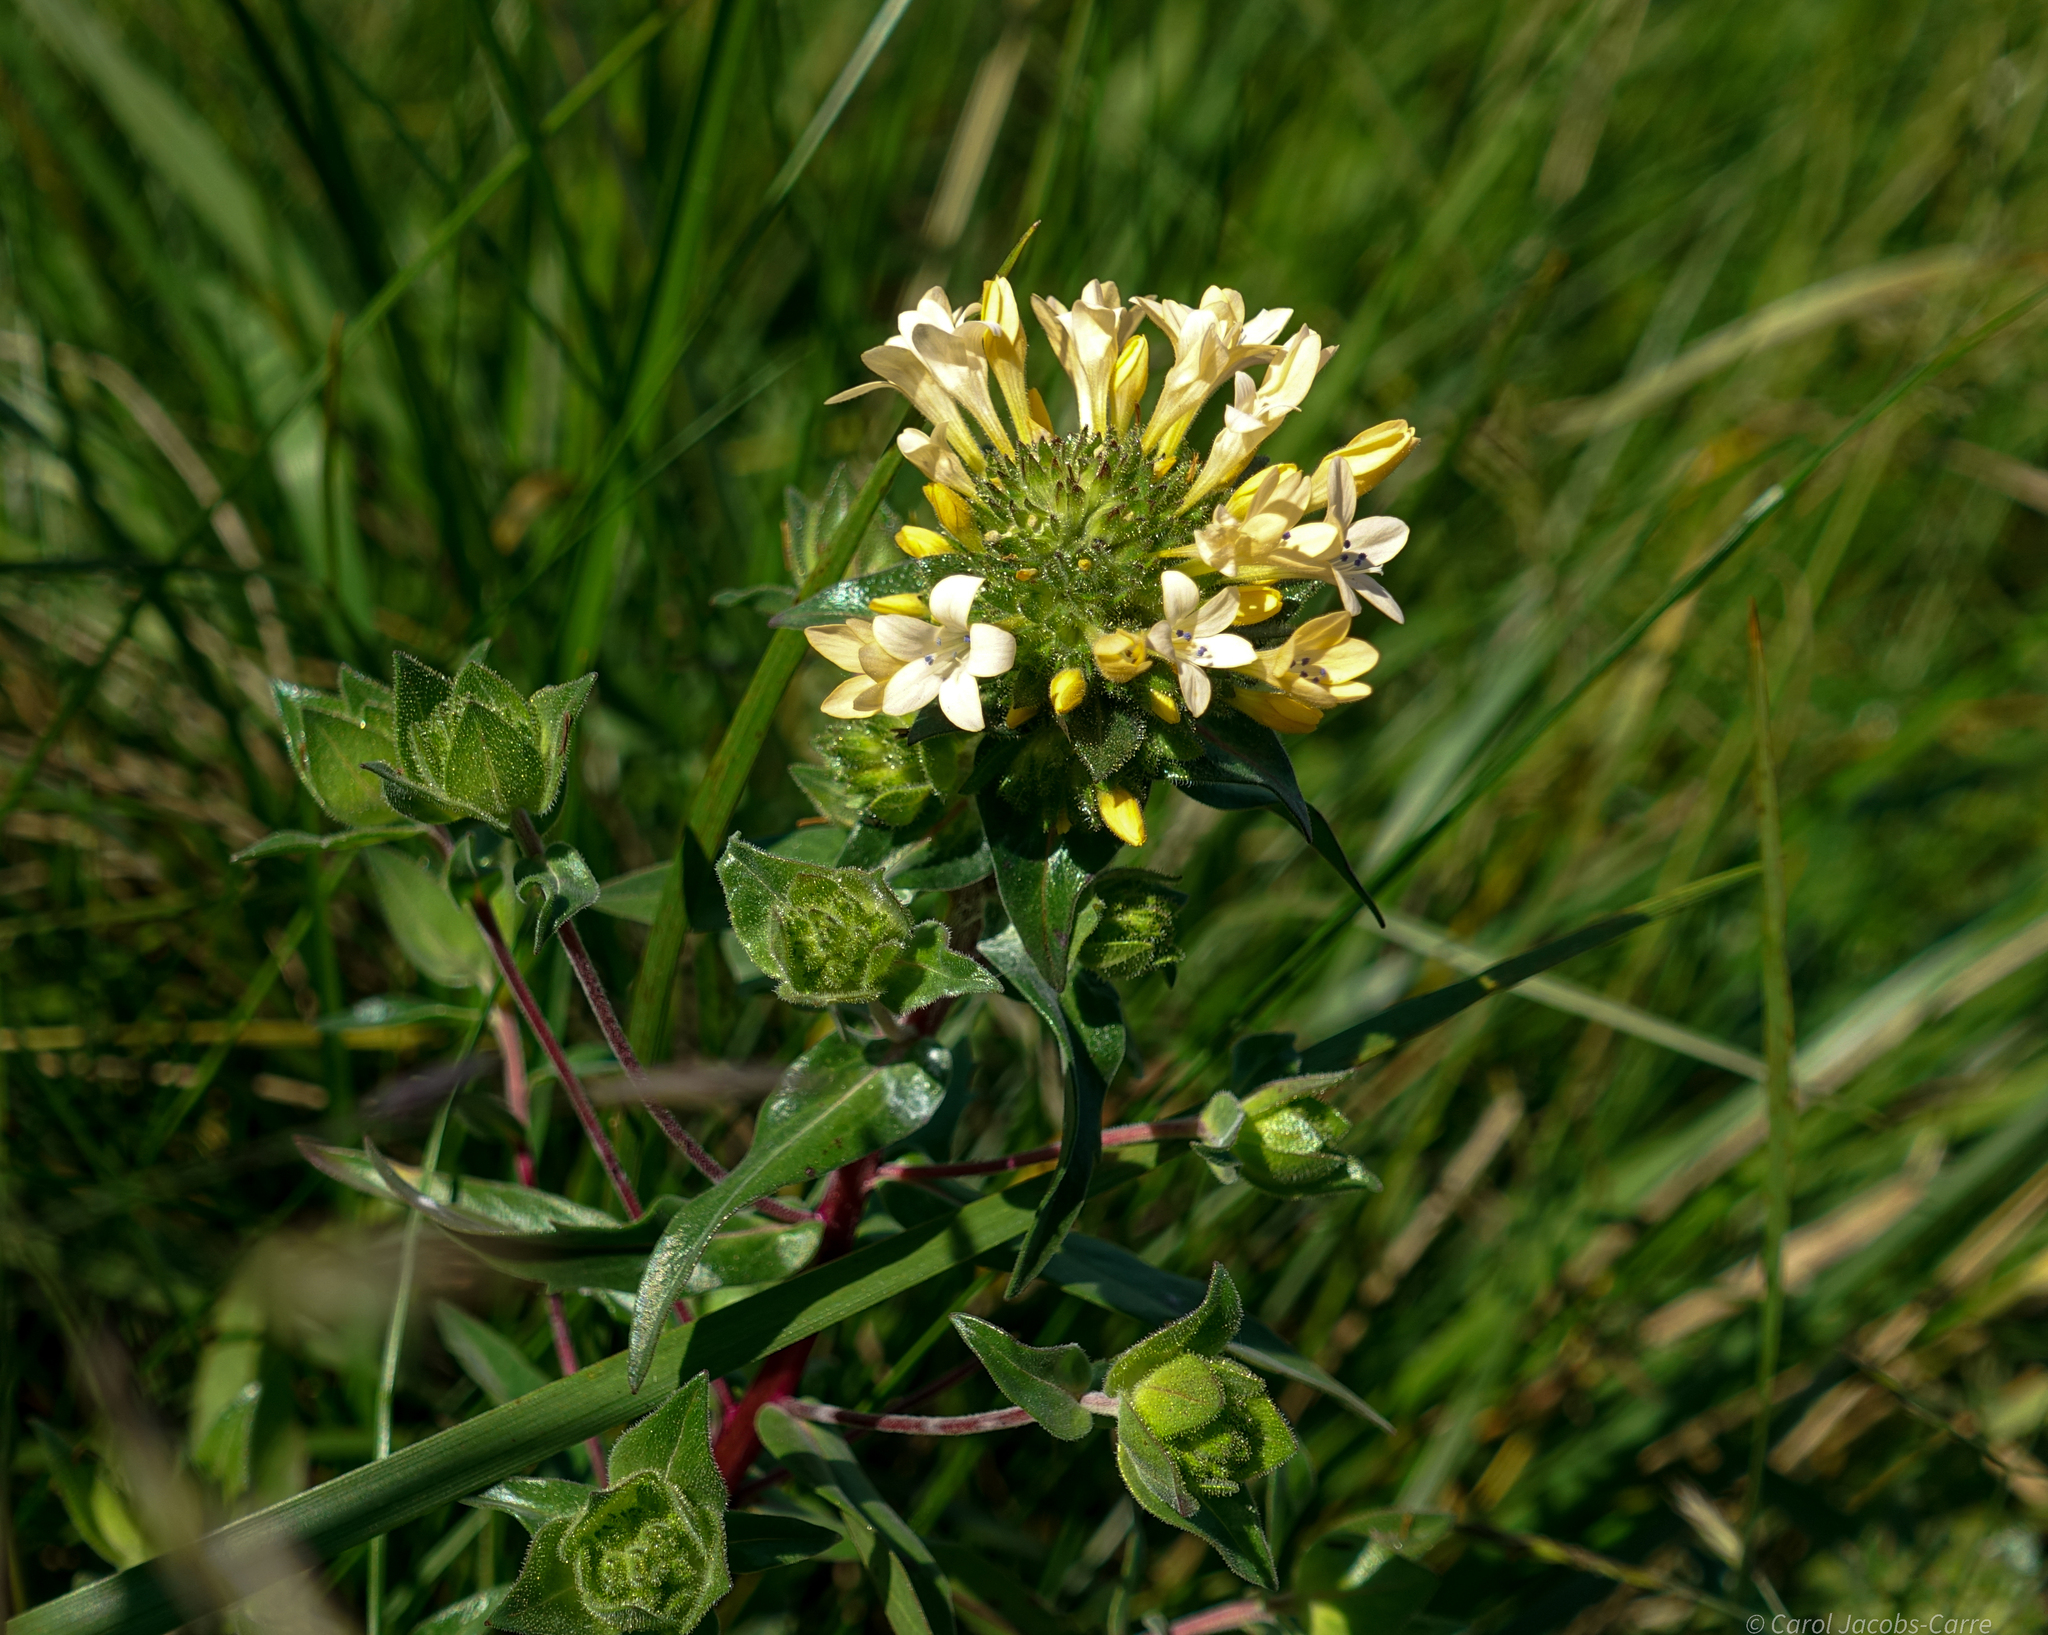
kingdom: Plantae
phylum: Tracheophyta
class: Magnoliopsida
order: Ericales
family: Polemoniaceae
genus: Collomia
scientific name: Collomia grandiflora
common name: California strawflower
